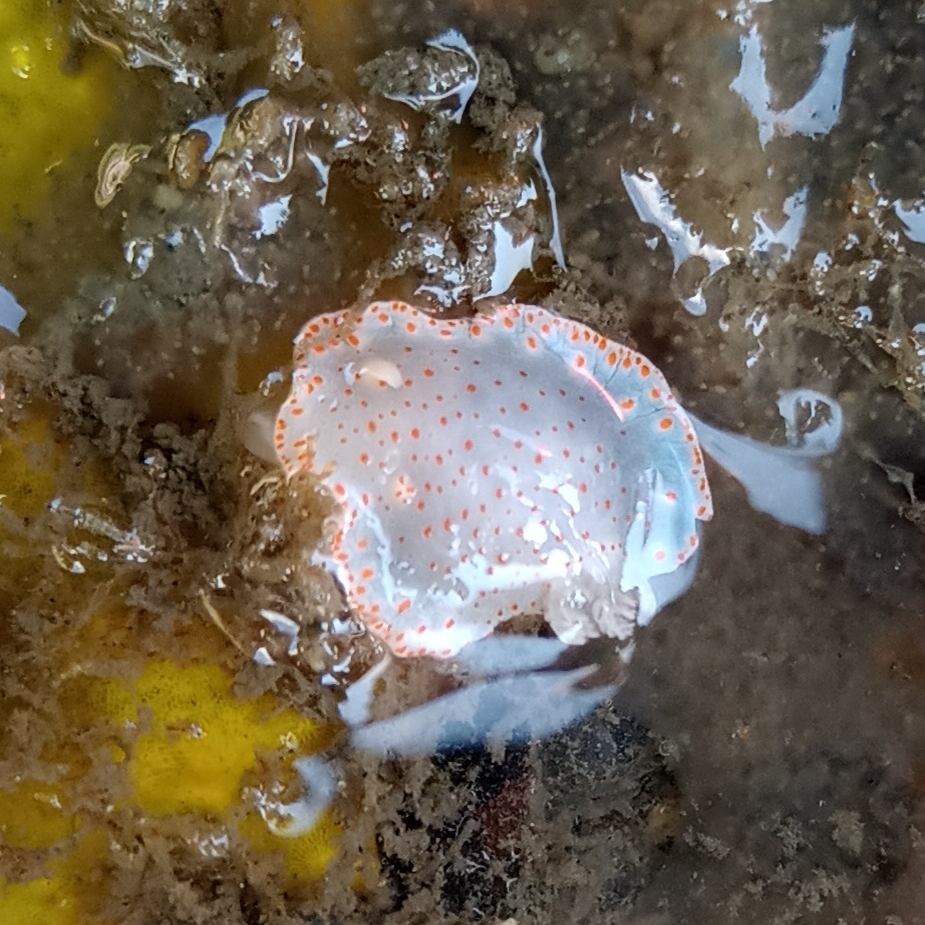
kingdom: Animalia
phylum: Mollusca
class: Gastropoda
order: Nudibranchia
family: Chromodorididae
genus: Tyrinna
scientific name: Tyrinna evelinae
